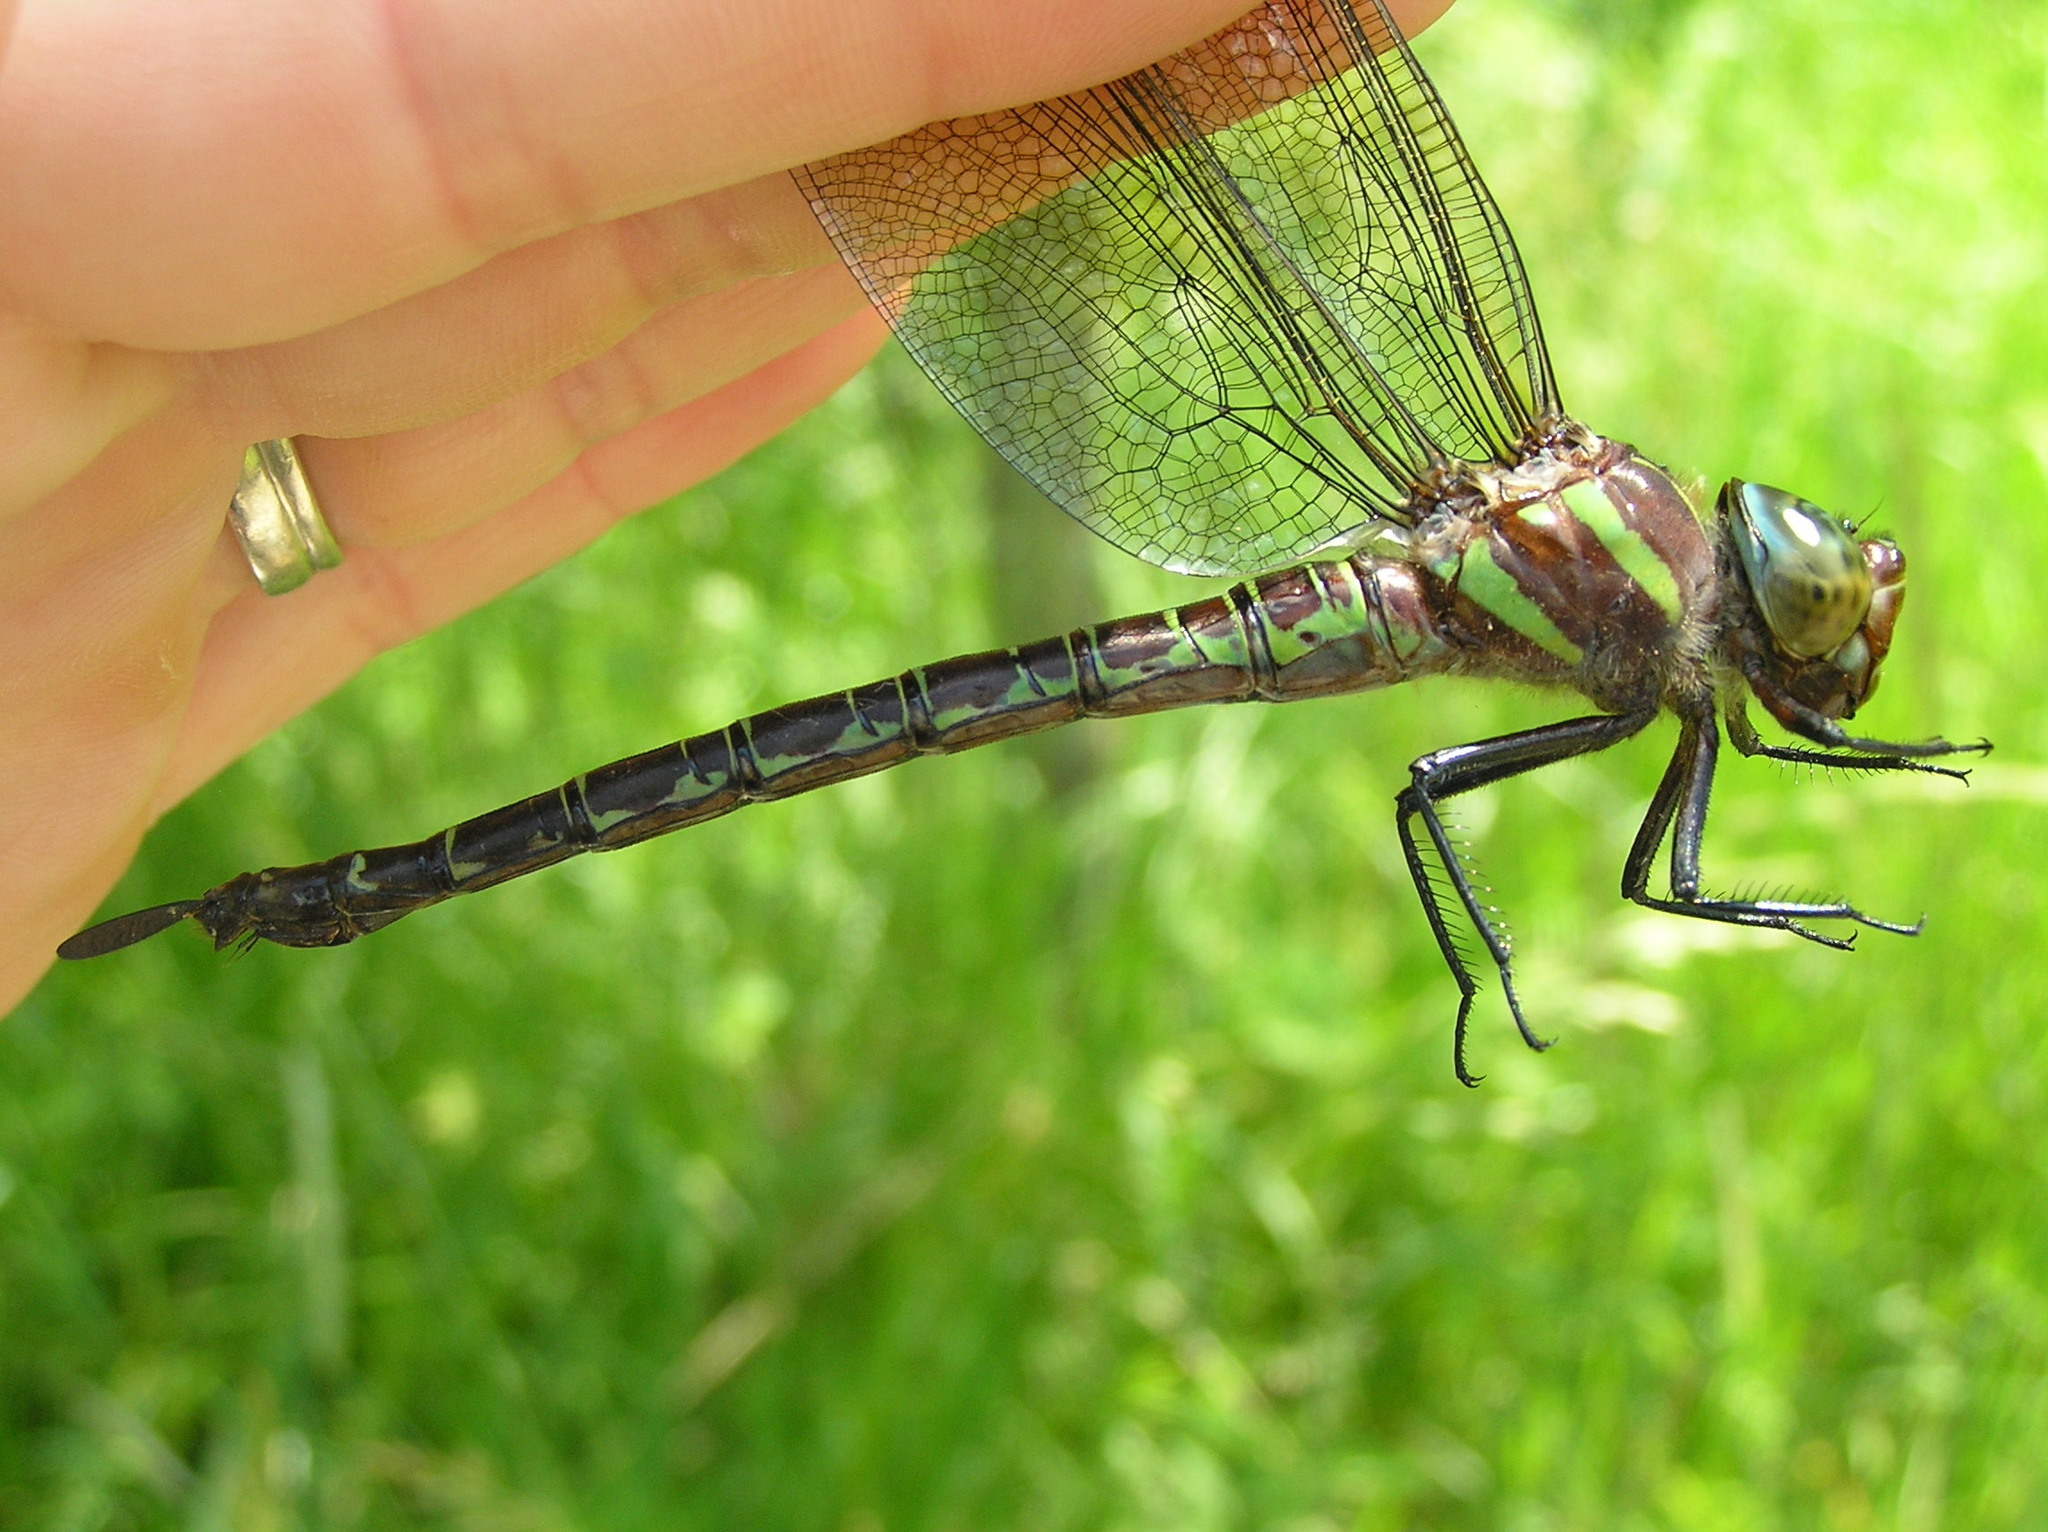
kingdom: Animalia
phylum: Arthropoda
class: Insecta
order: Odonata
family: Aeshnidae
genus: Epiaeschna
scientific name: Epiaeschna heros
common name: Swamp darner
